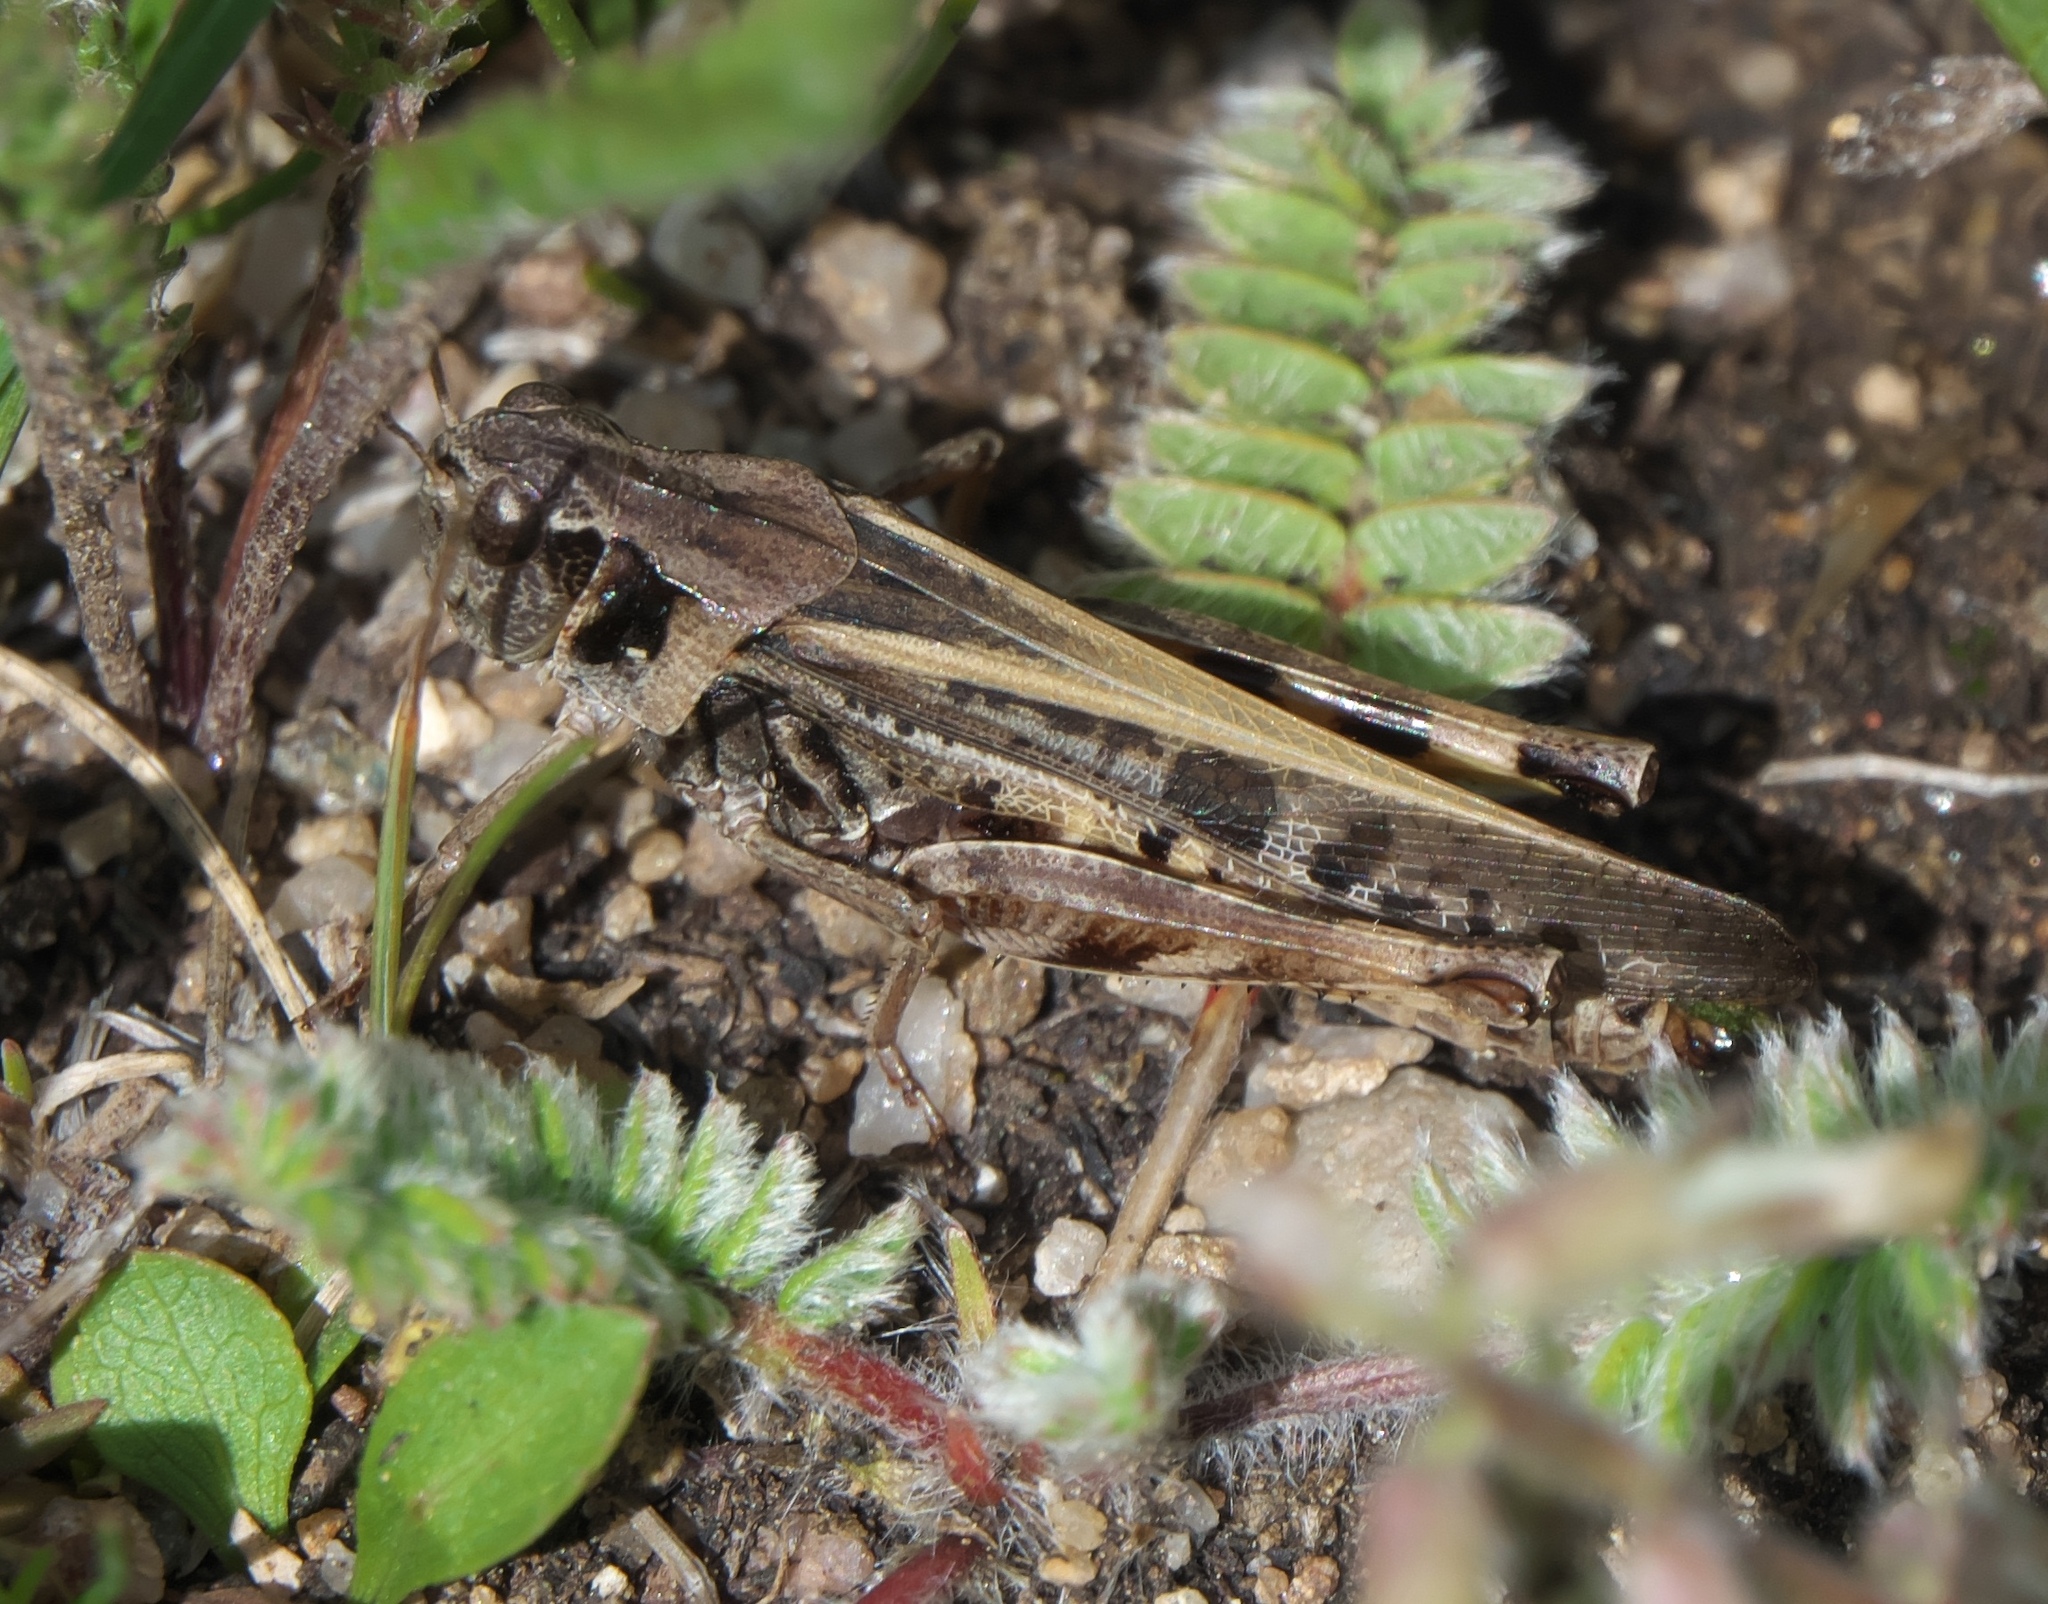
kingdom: Animalia
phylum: Arthropoda
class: Insecta
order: Orthoptera
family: Acrididae
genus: Camnula
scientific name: Camnula pellucida
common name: Clear-winged grasshopper
